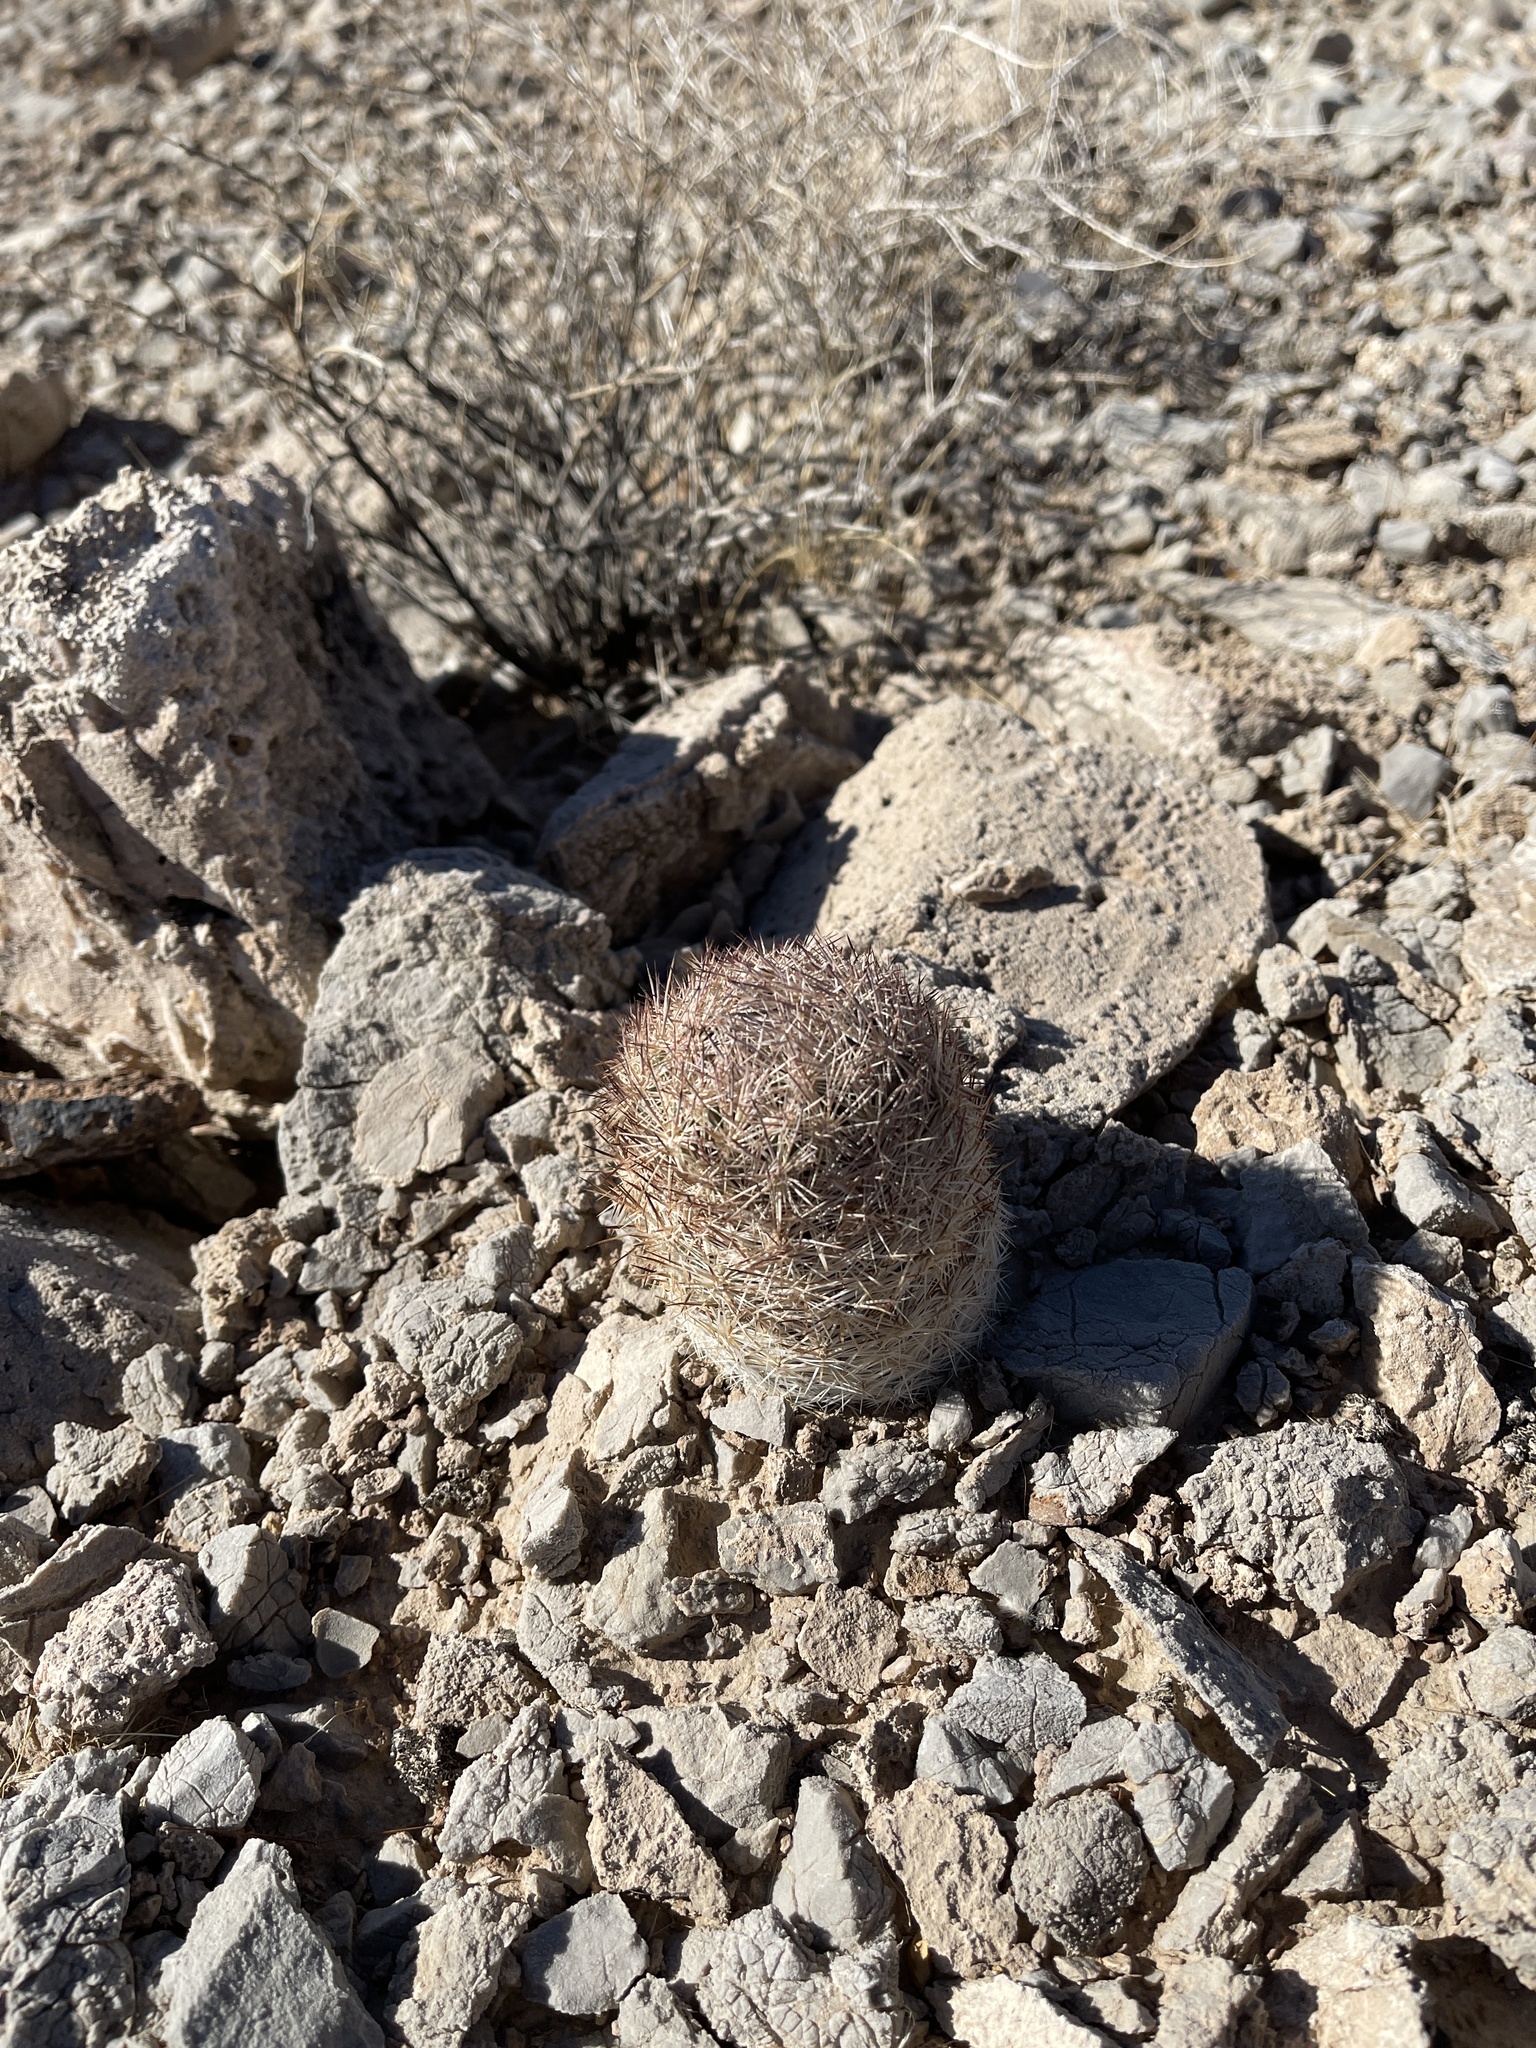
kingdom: Plantae
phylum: Tracheophyta
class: Magnoliopsida
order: Caryophyllales
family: Cactaceae
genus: Pelecyphora
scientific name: Pelecyphora dasyacantha
